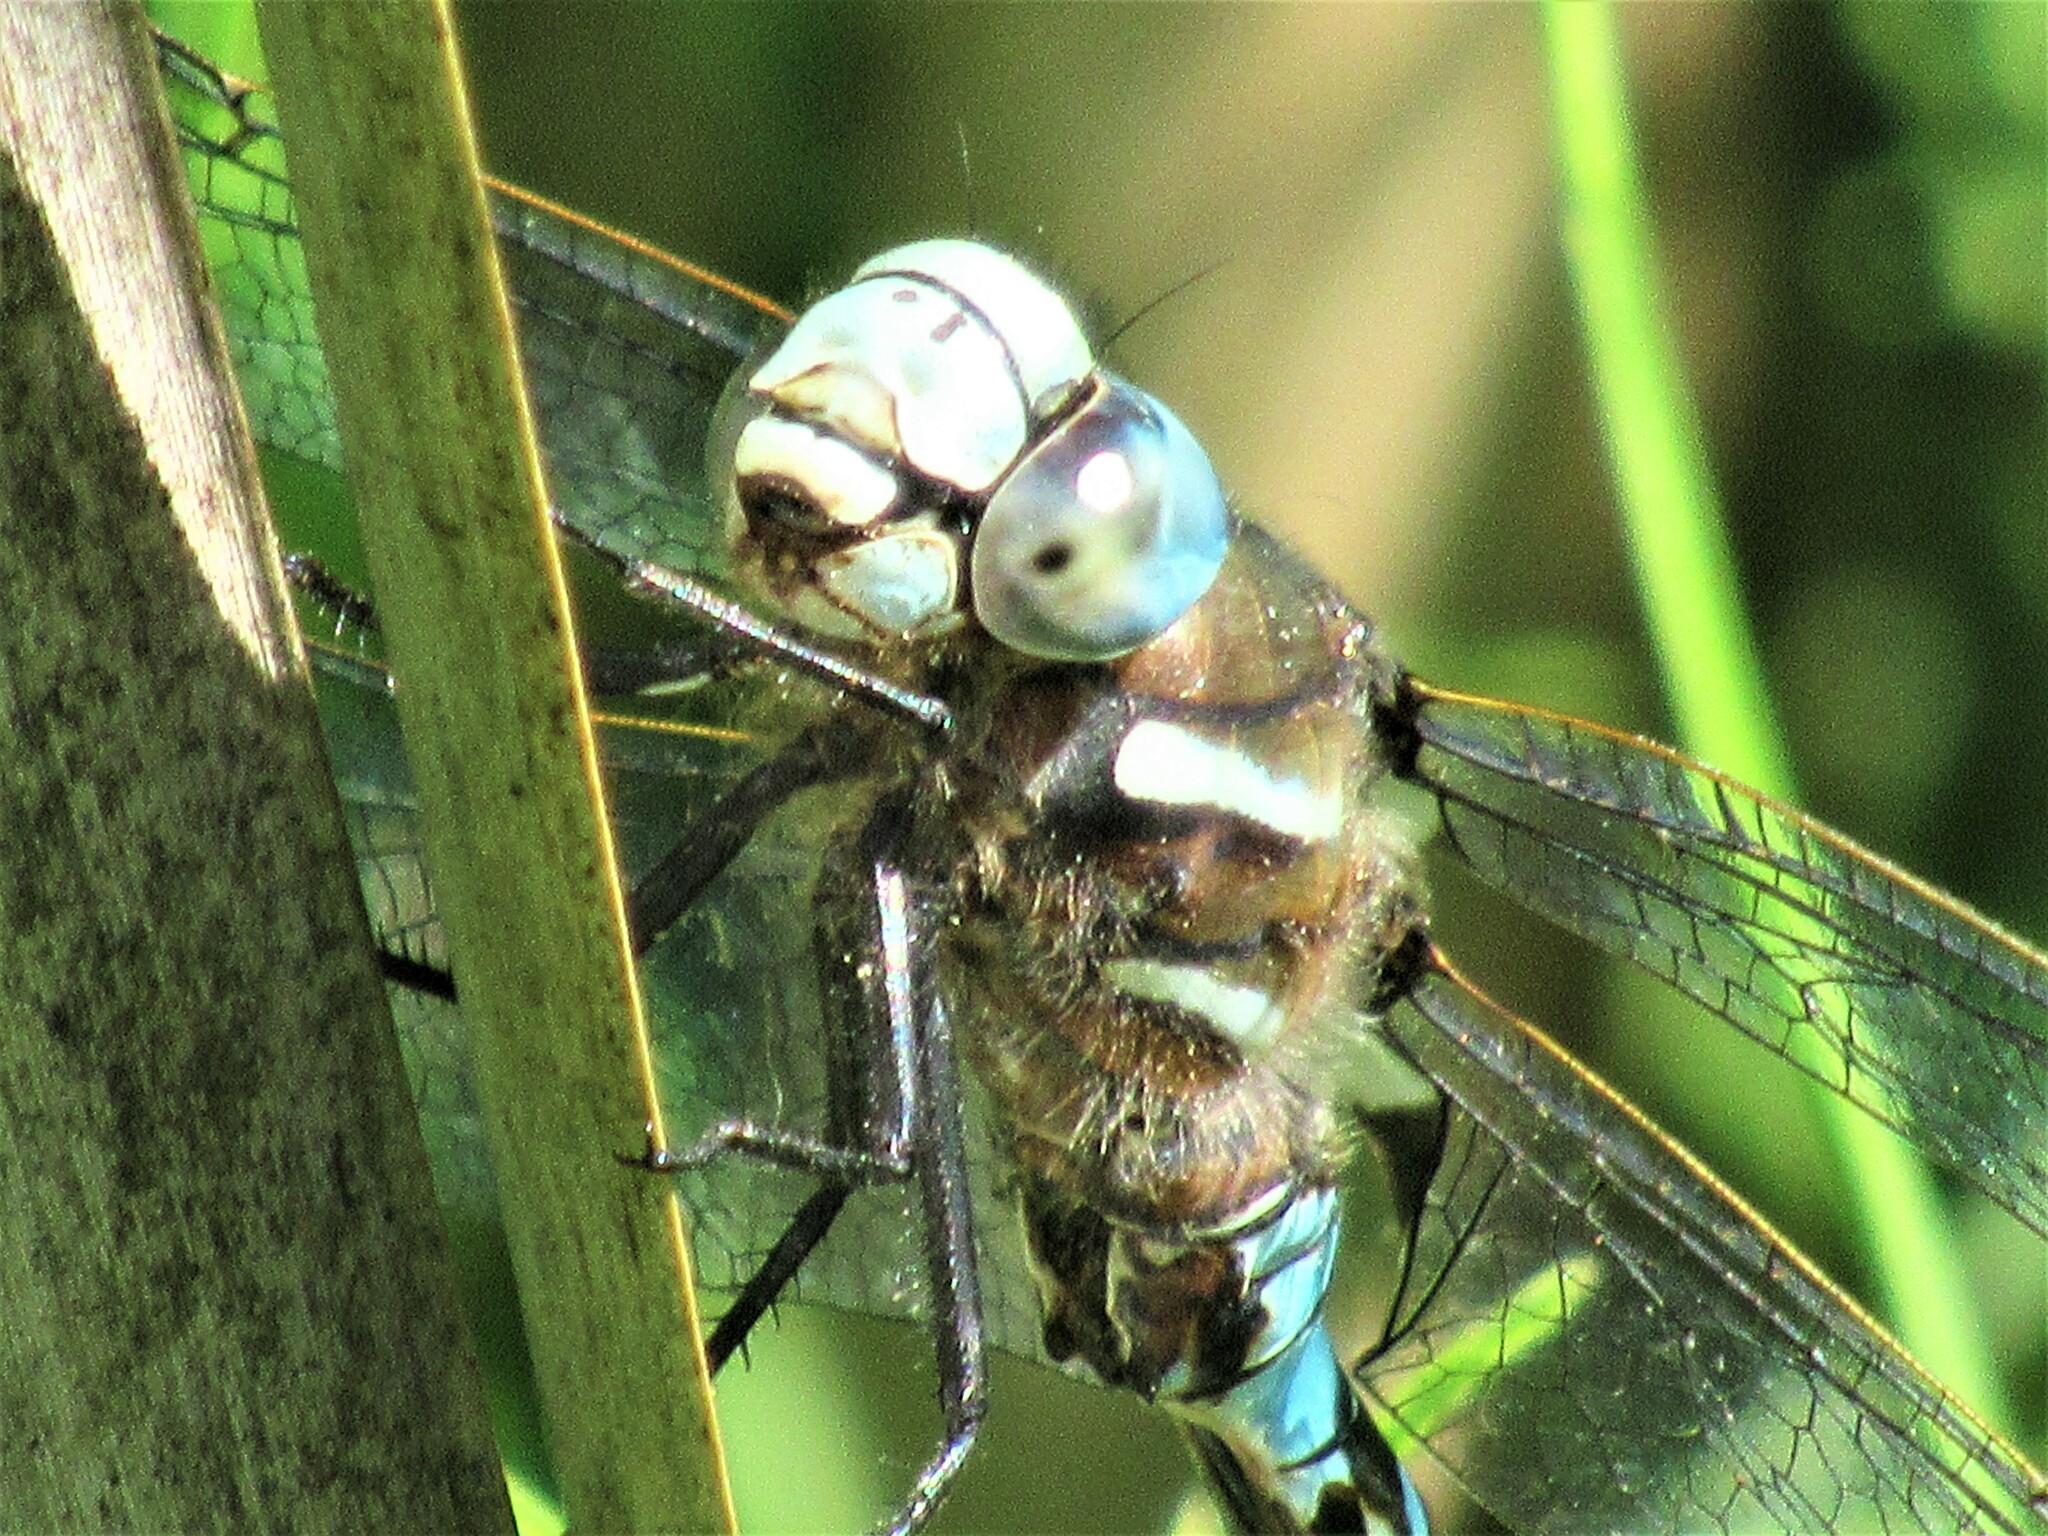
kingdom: Animalia
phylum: Arthropoda
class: Insecta
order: Odonata
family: Aeshnidae
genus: Rhionaeschna
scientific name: Rhionaeschna californica
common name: California darner
